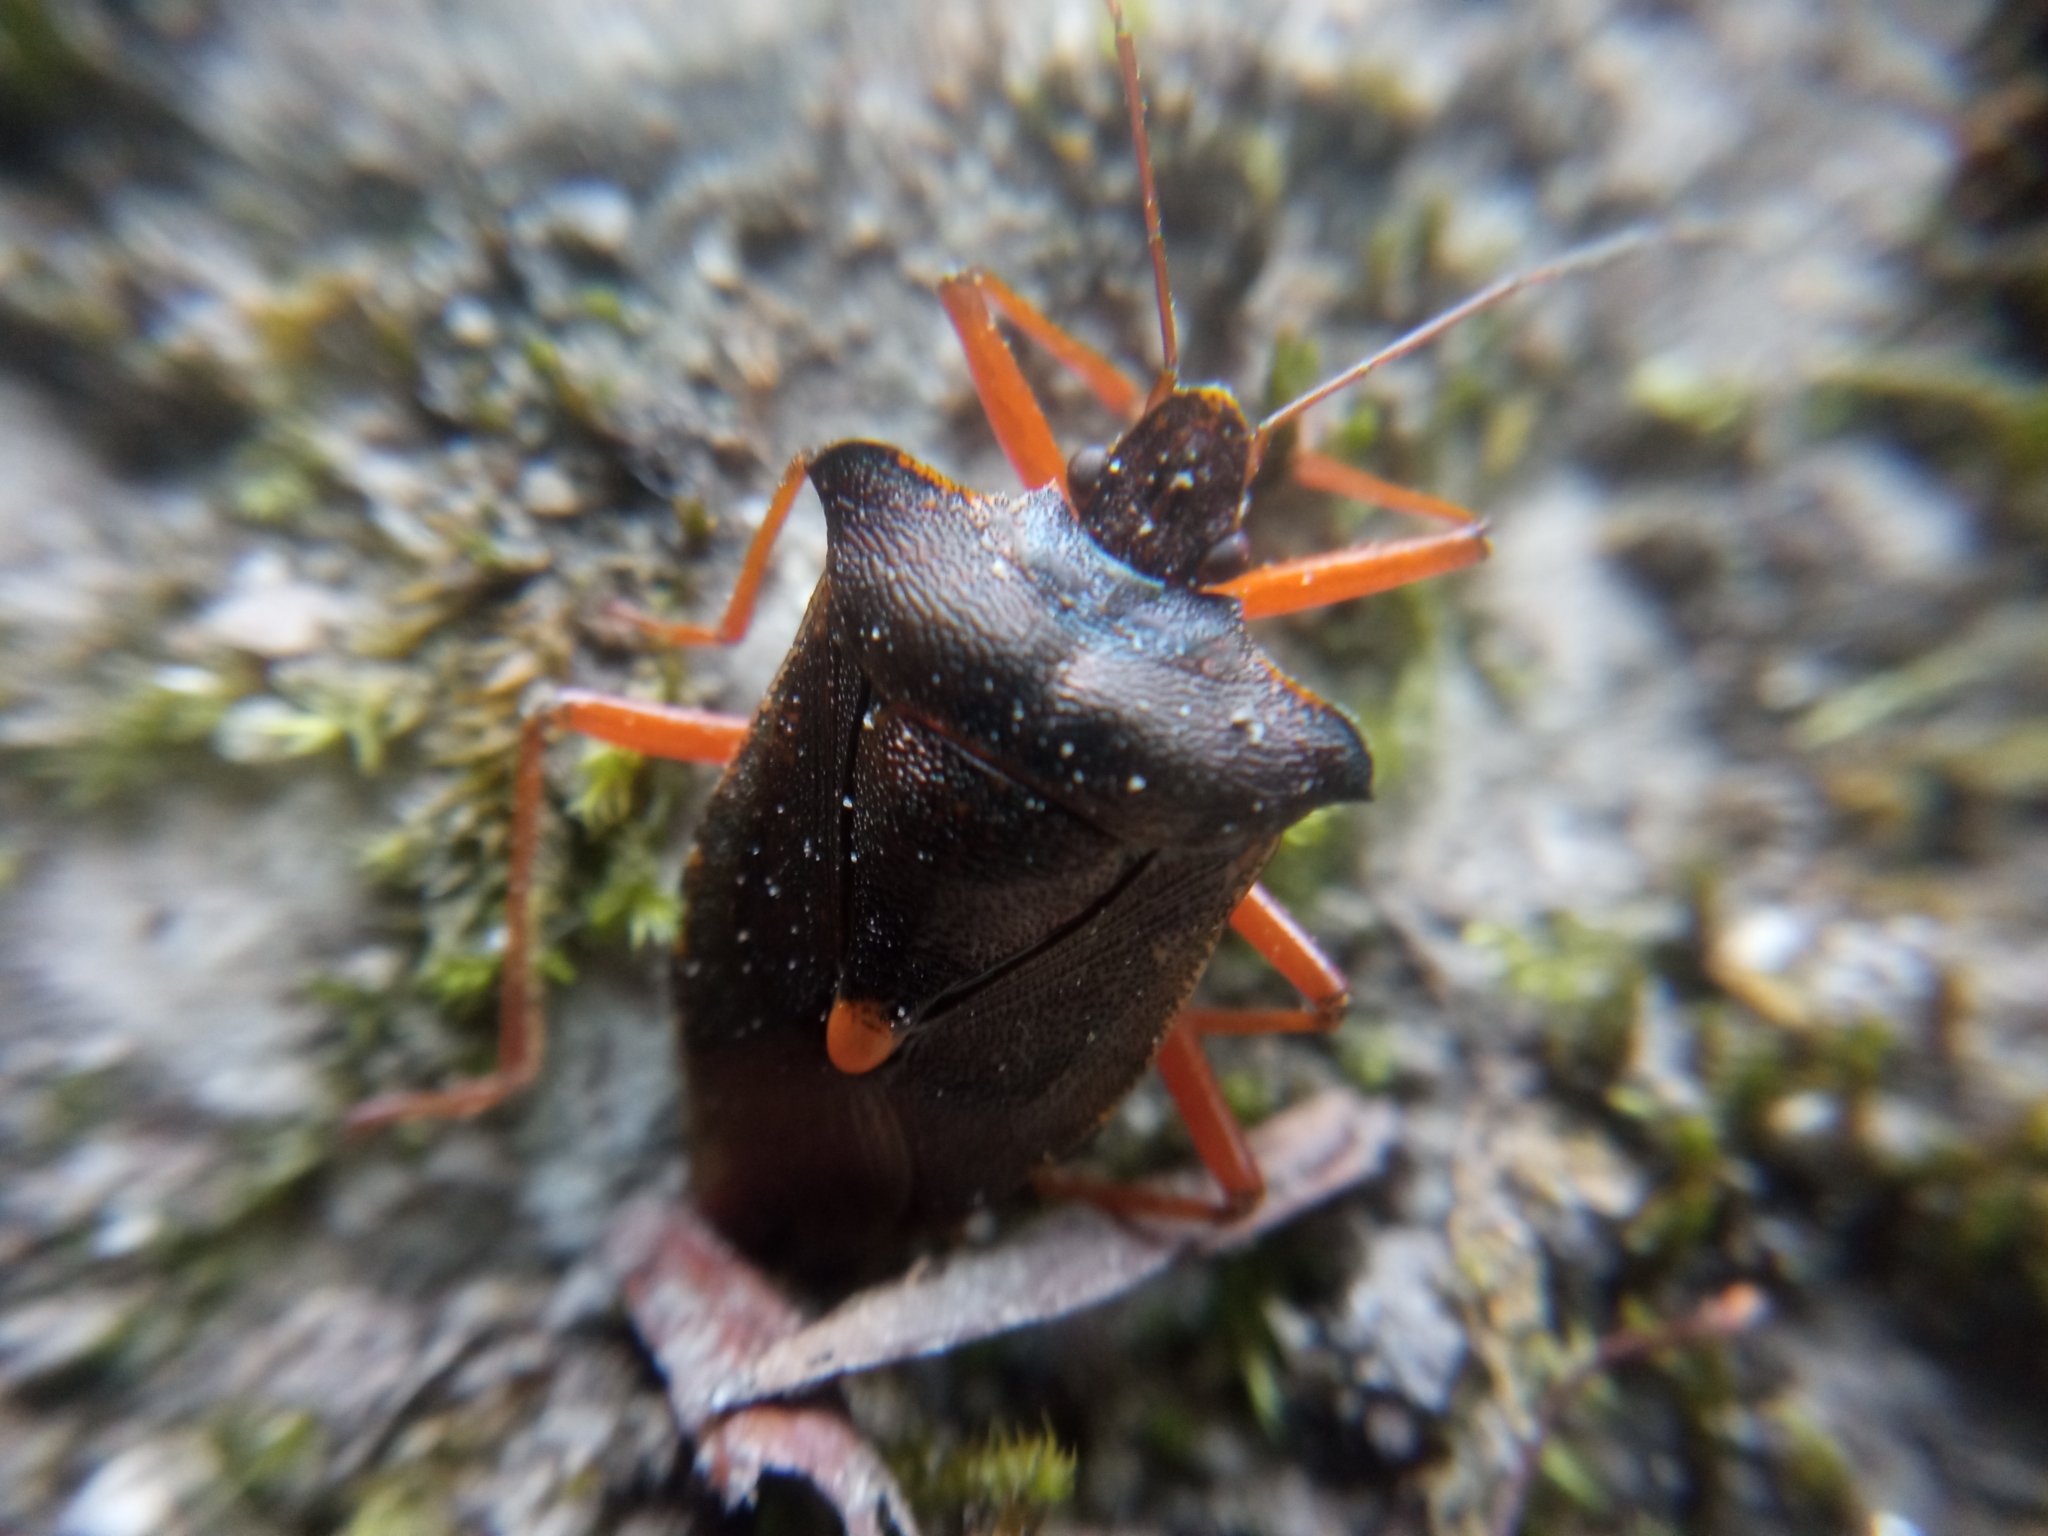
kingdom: Animalia
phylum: Arthropoda
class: Insecta
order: Hemiptera
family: Pentatomidae
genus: Pentatoma
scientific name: Pentatoma rufipes
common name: Forest bug
